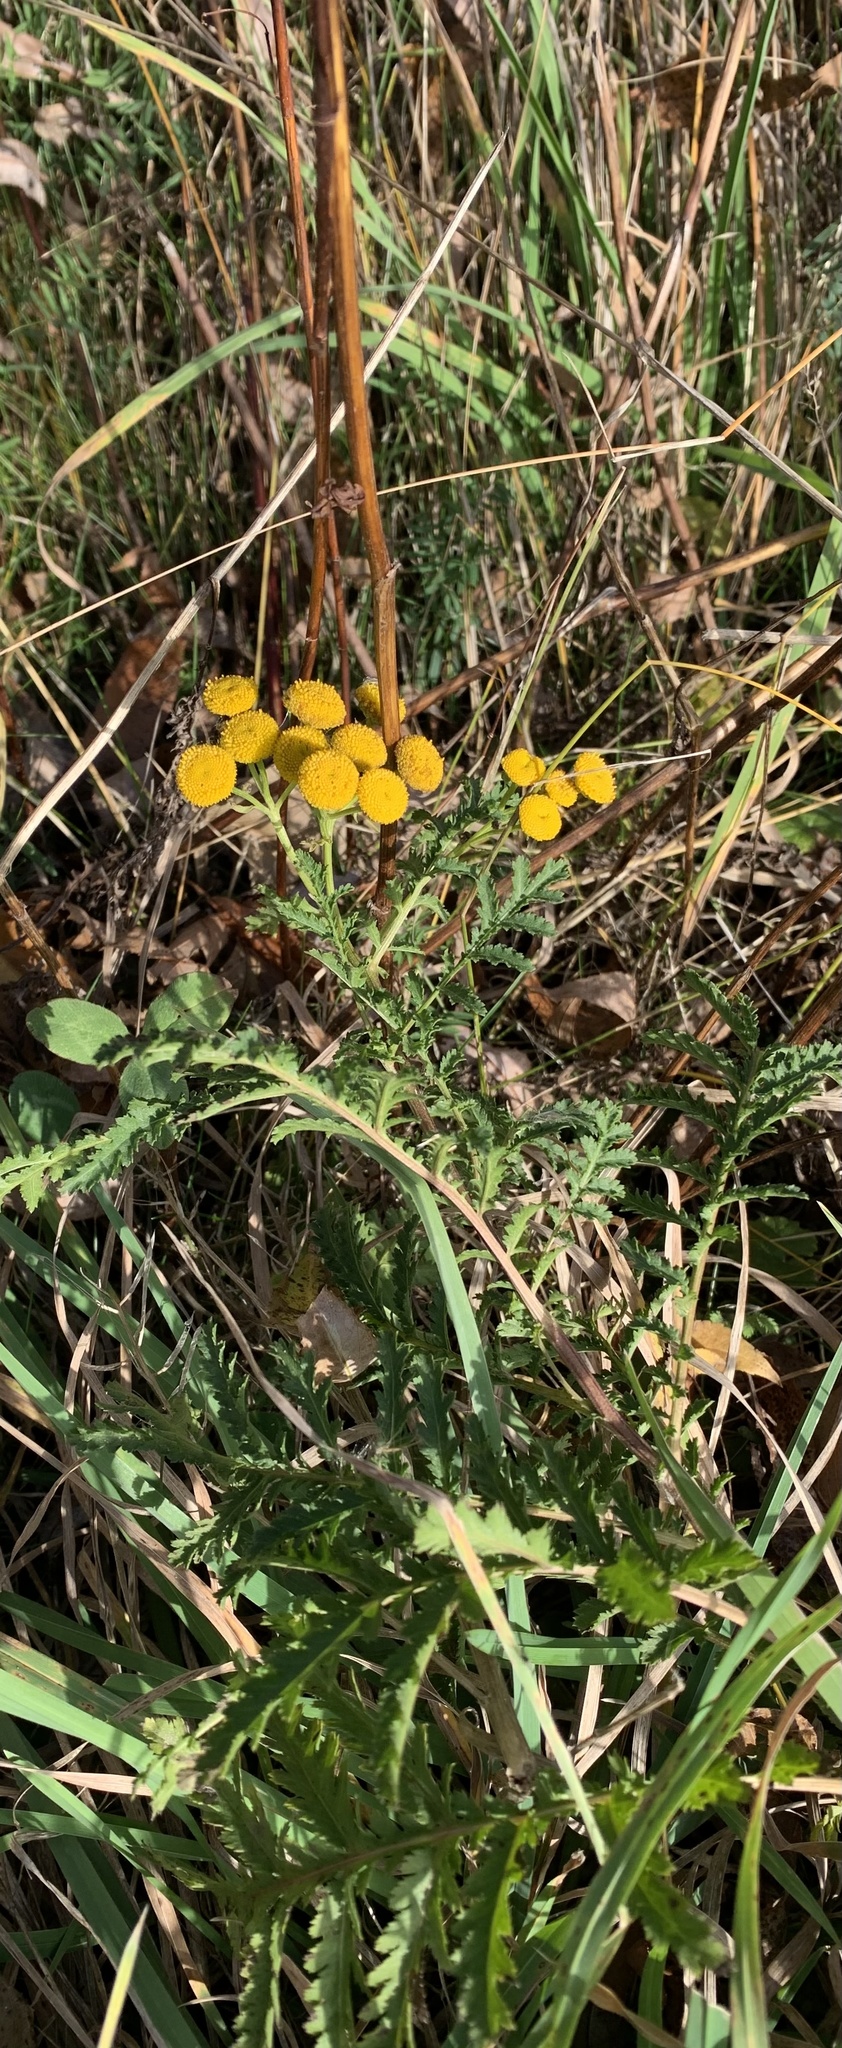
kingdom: Plantae
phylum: Tracheophyta
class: Magnoliopsida
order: Asterales
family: Asteraceae
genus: Tanacetum
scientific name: Tanacetum vulgare
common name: Common tansy
